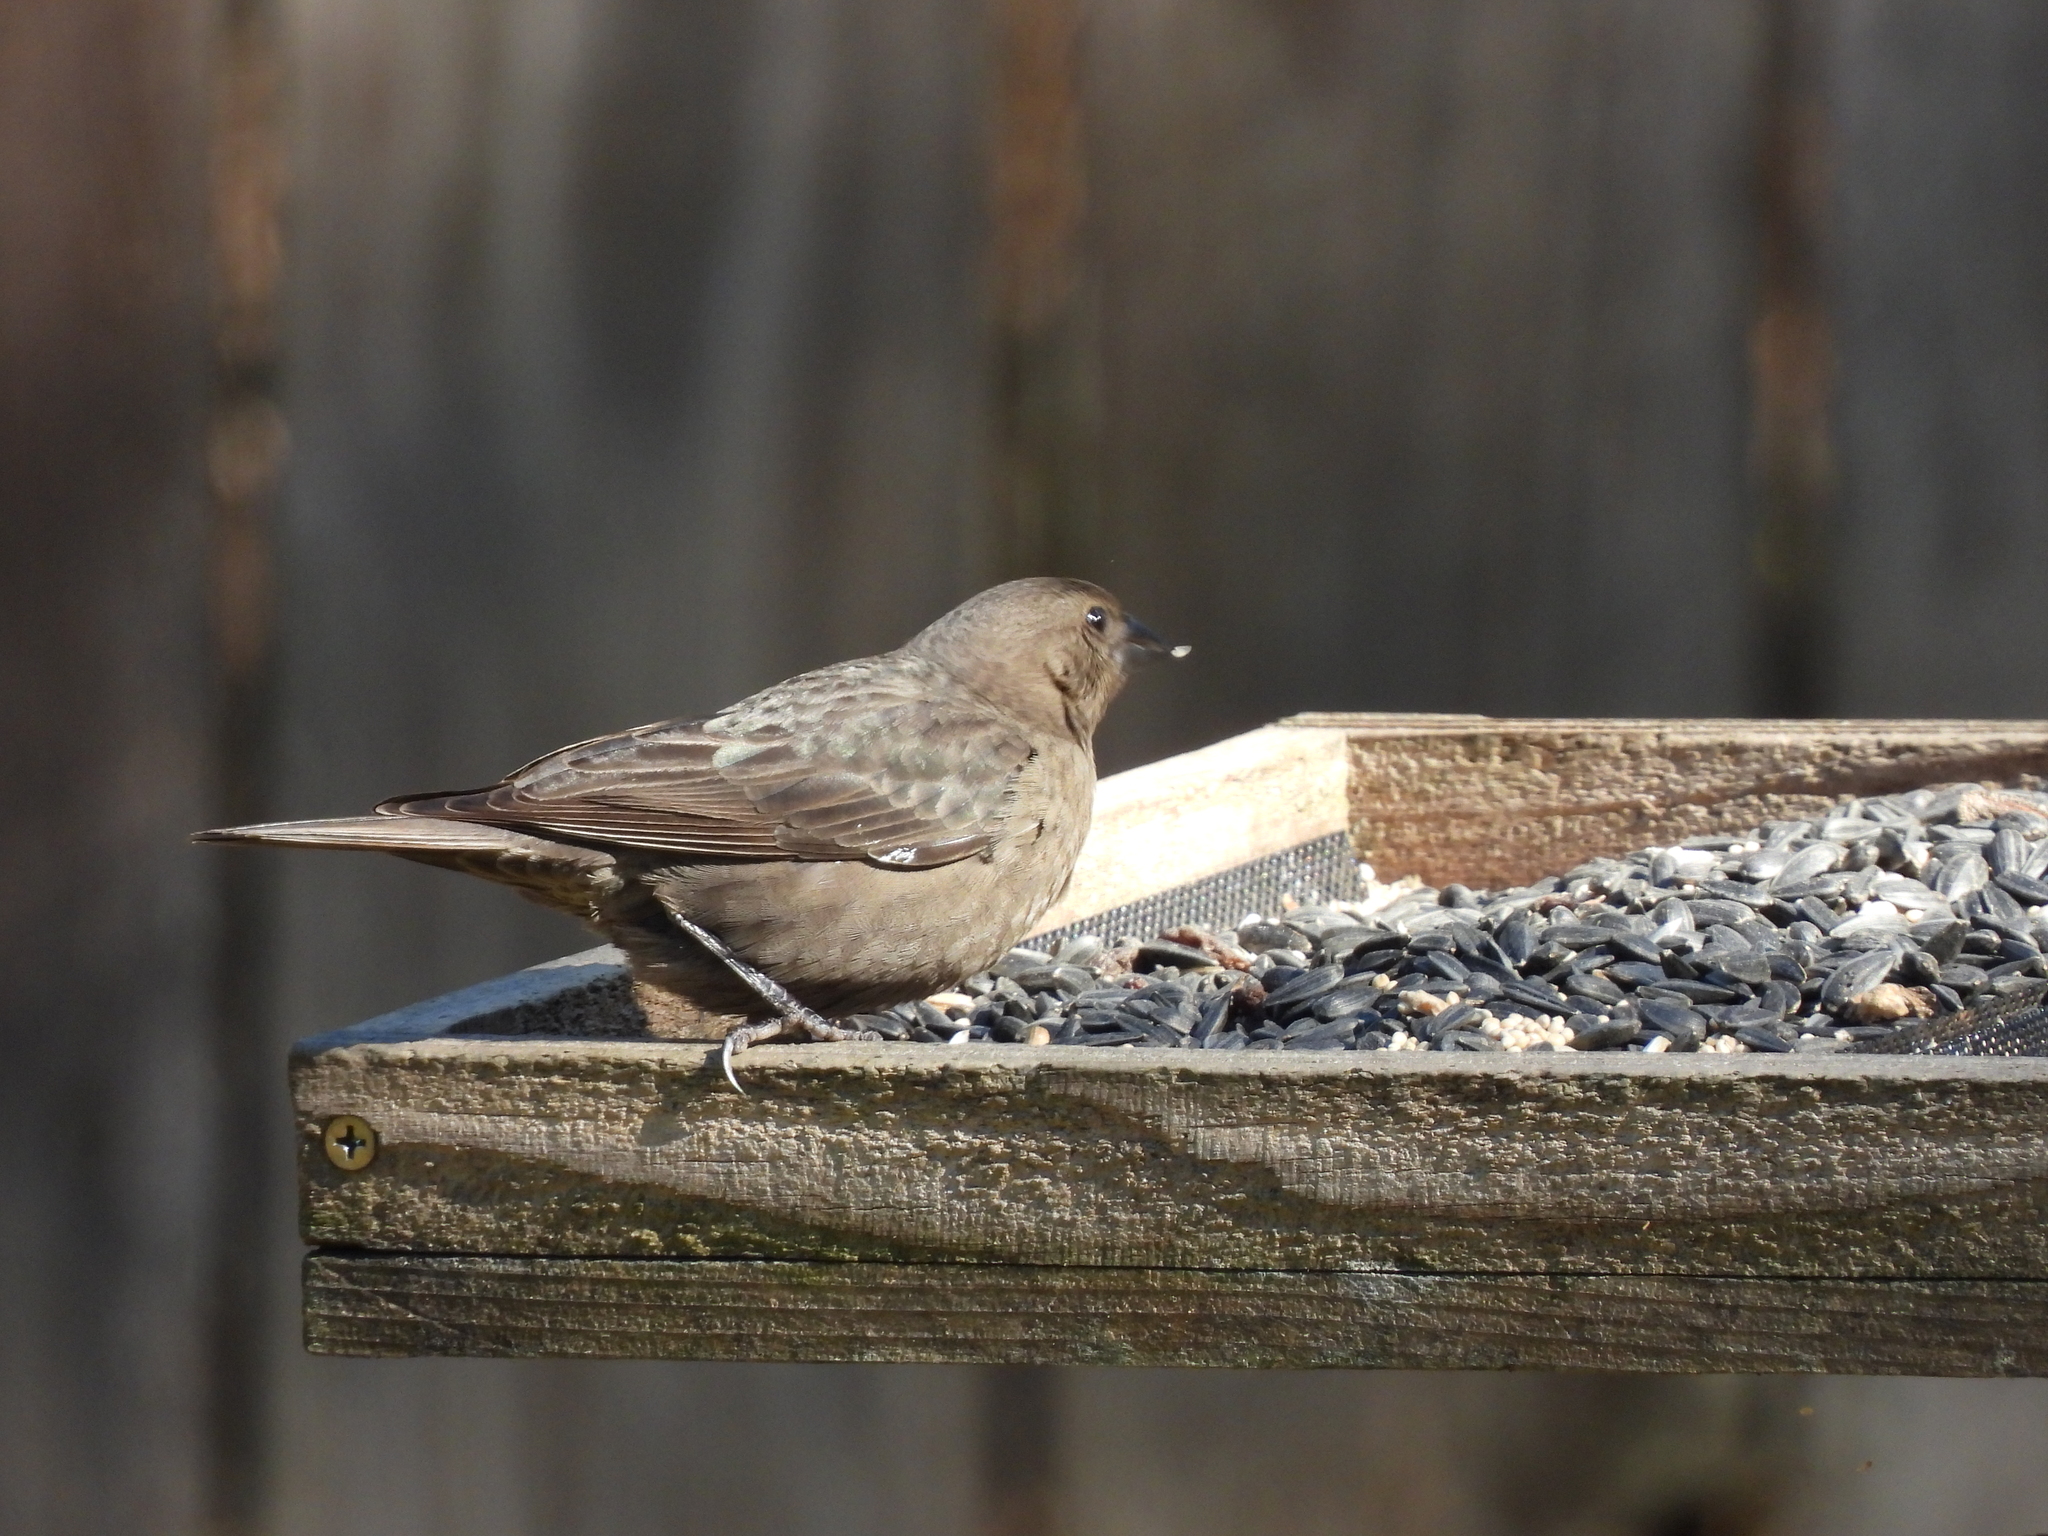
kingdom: Animalia
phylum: Chordata
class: Aves
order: Passeriformes
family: Icteridae
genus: Molothrus
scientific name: Molothrus ater
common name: Brown-headed cowbird
